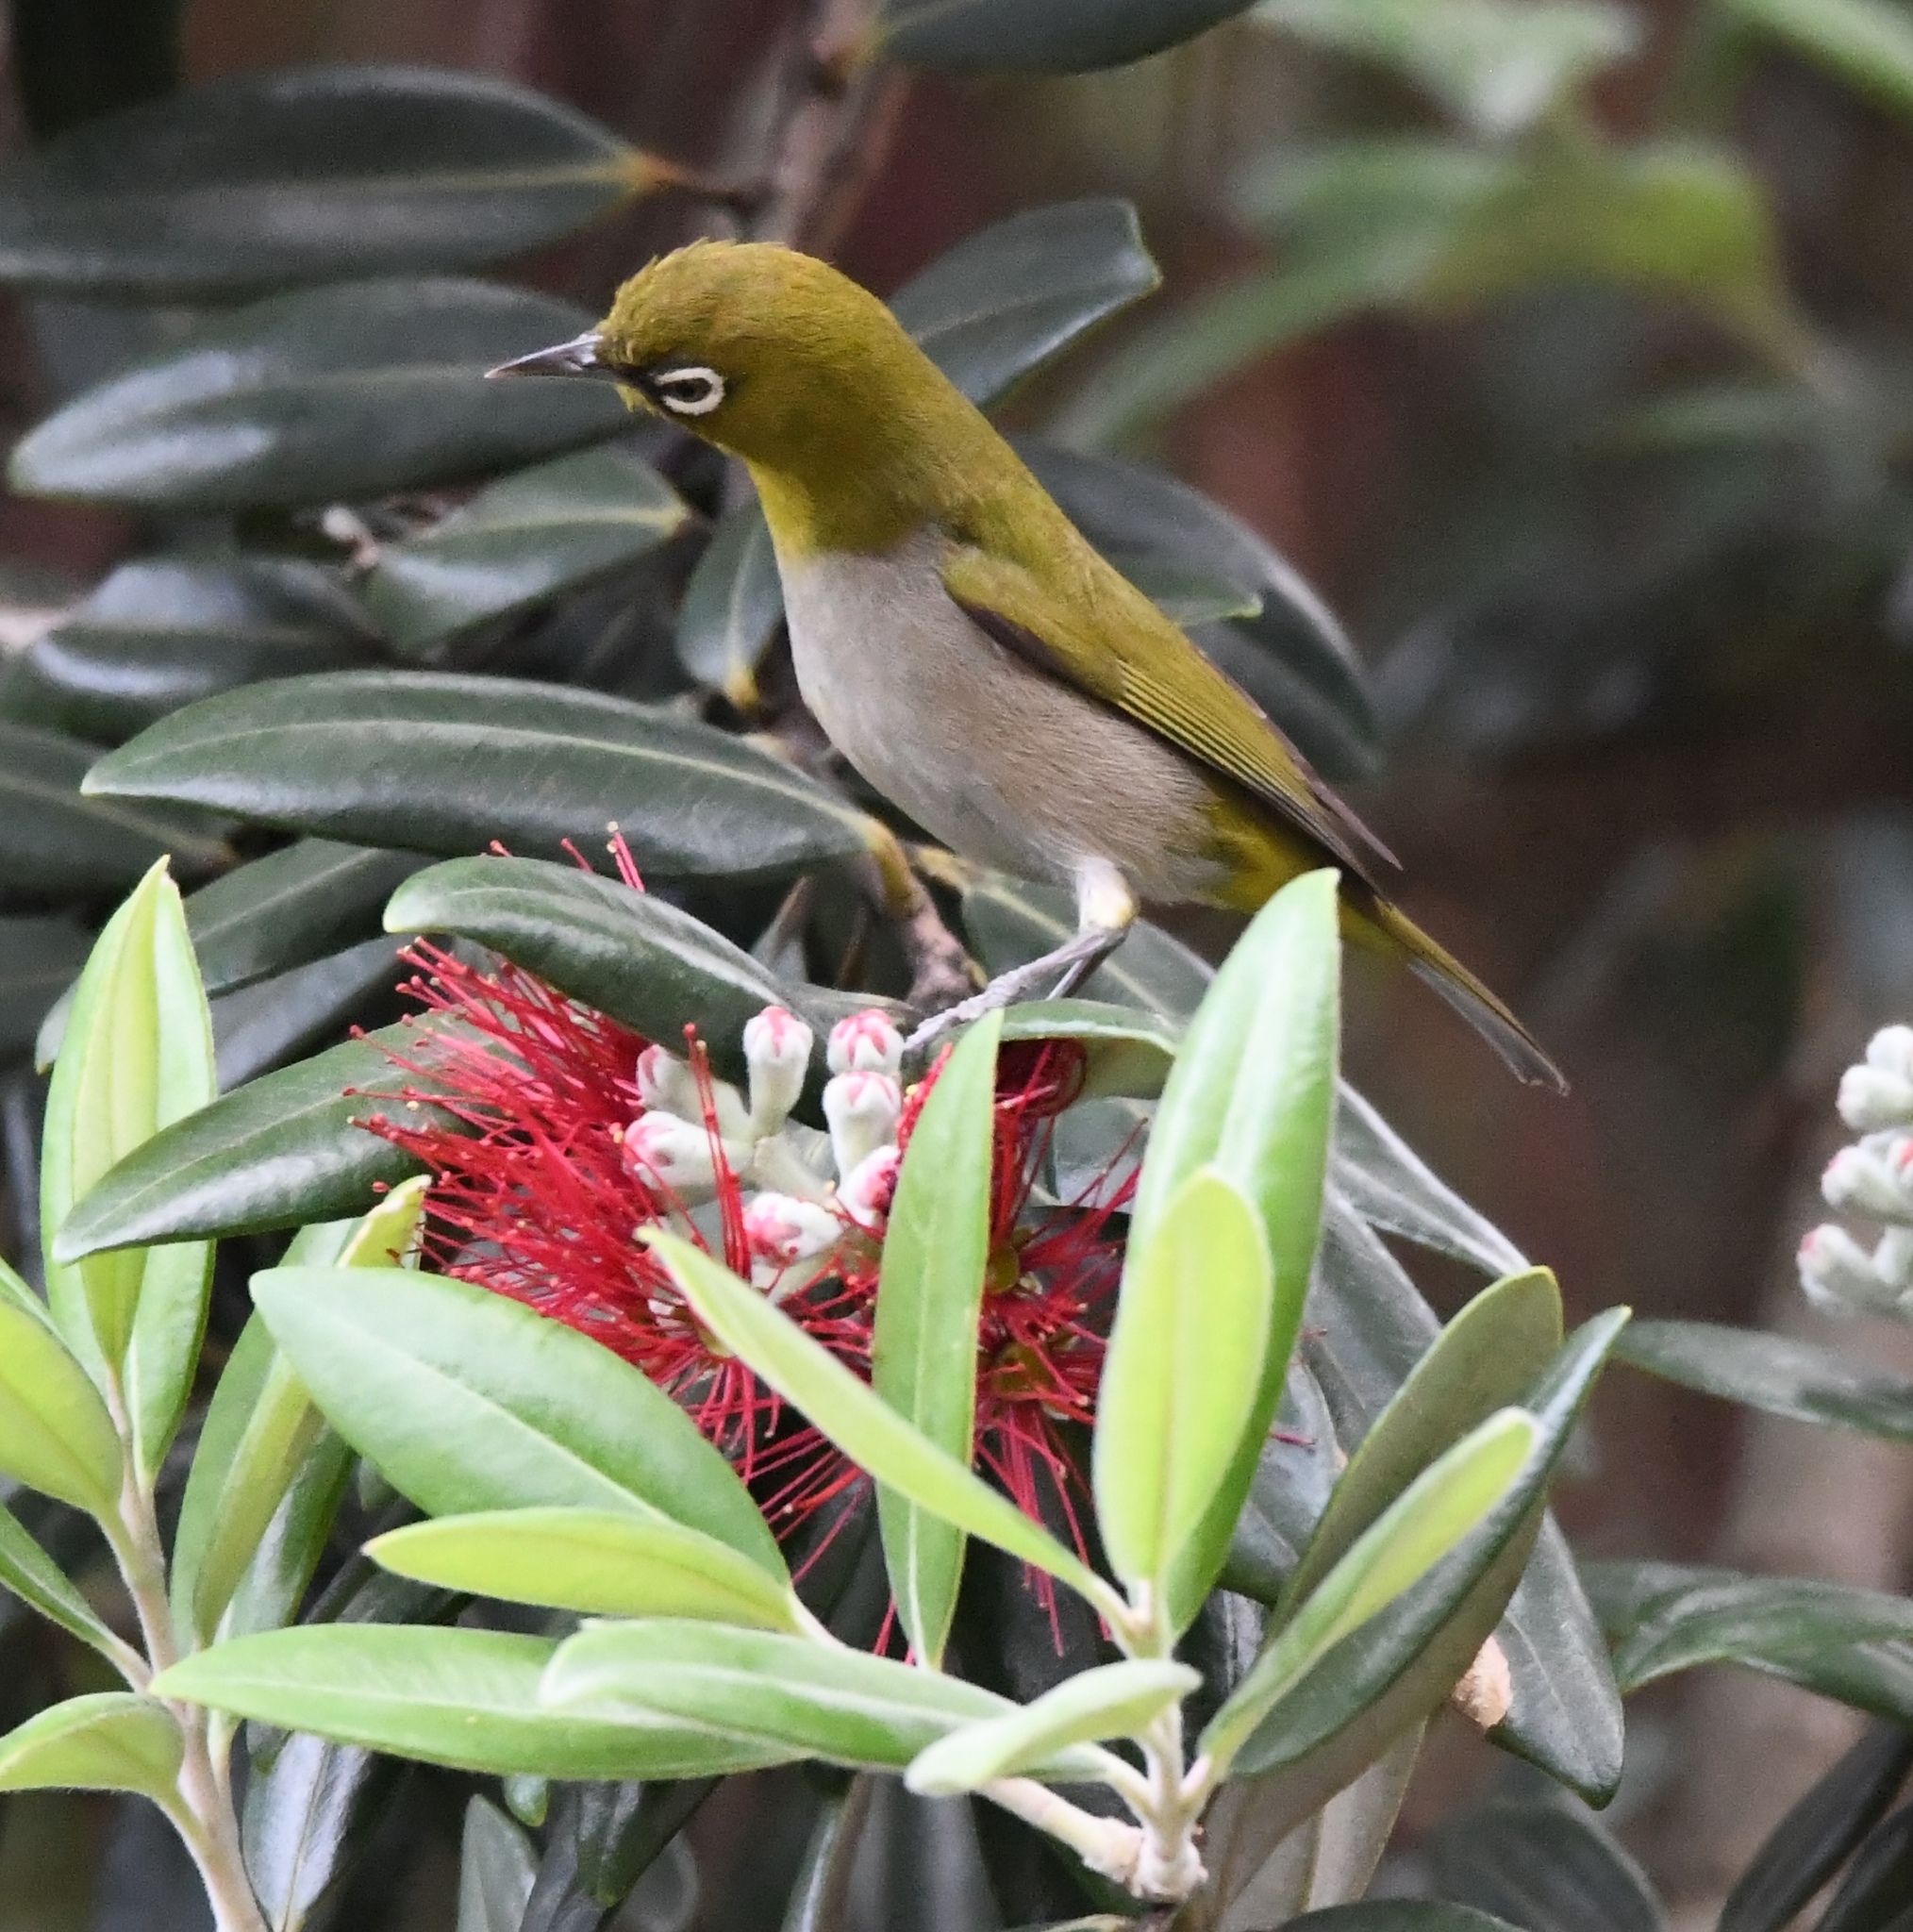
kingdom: Animalia
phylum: Chordata
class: Aves
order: Passeriformes
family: Zosteropidae
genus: Zosterops
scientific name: Zosterops virens
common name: Cape white-eye
